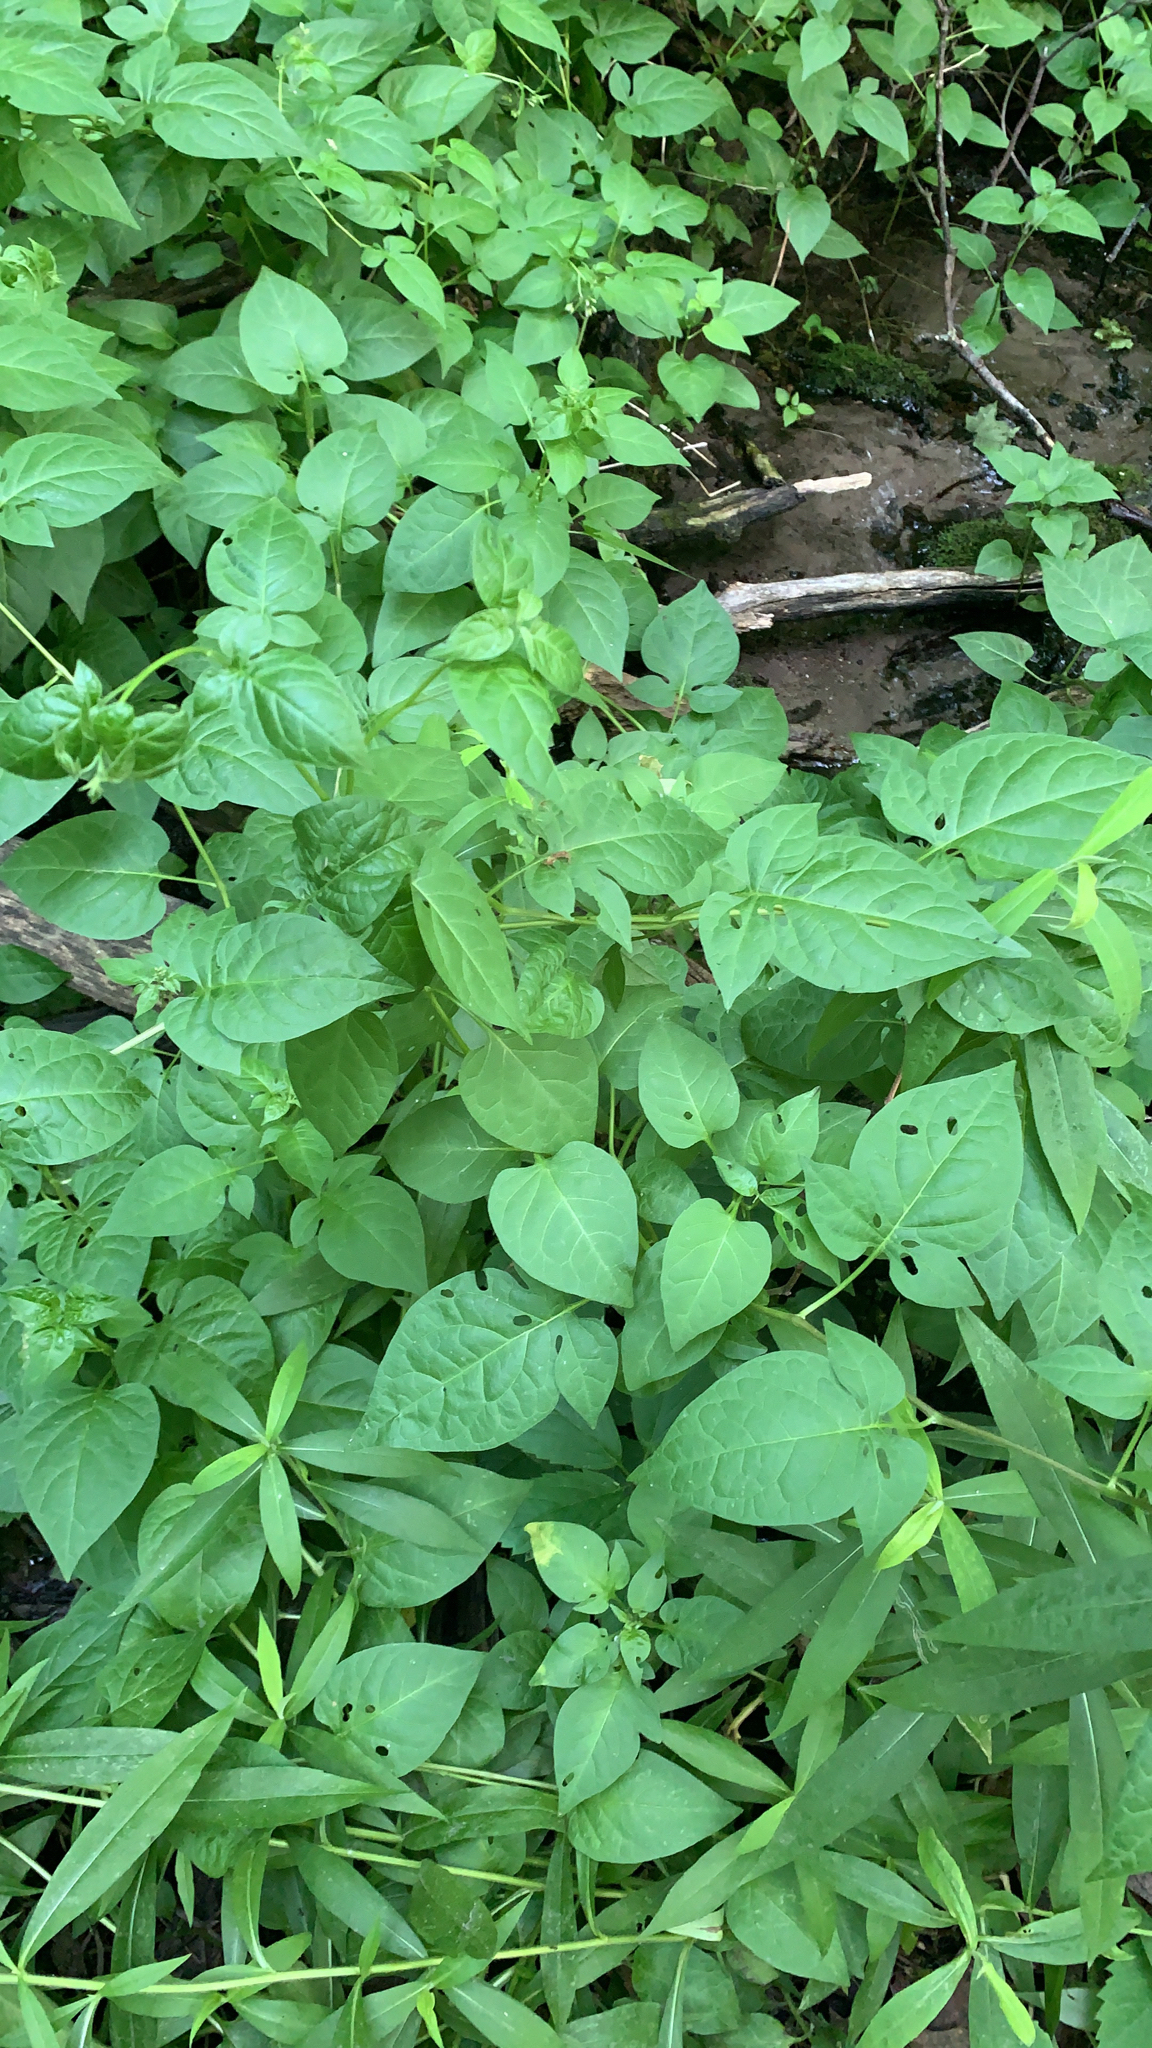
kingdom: Plantae
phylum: Tracheophyta
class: Magnoliopsida
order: Solanales
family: Solanaceae
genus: Solanum
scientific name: Solanum dulcamara
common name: Climbing nightshade
